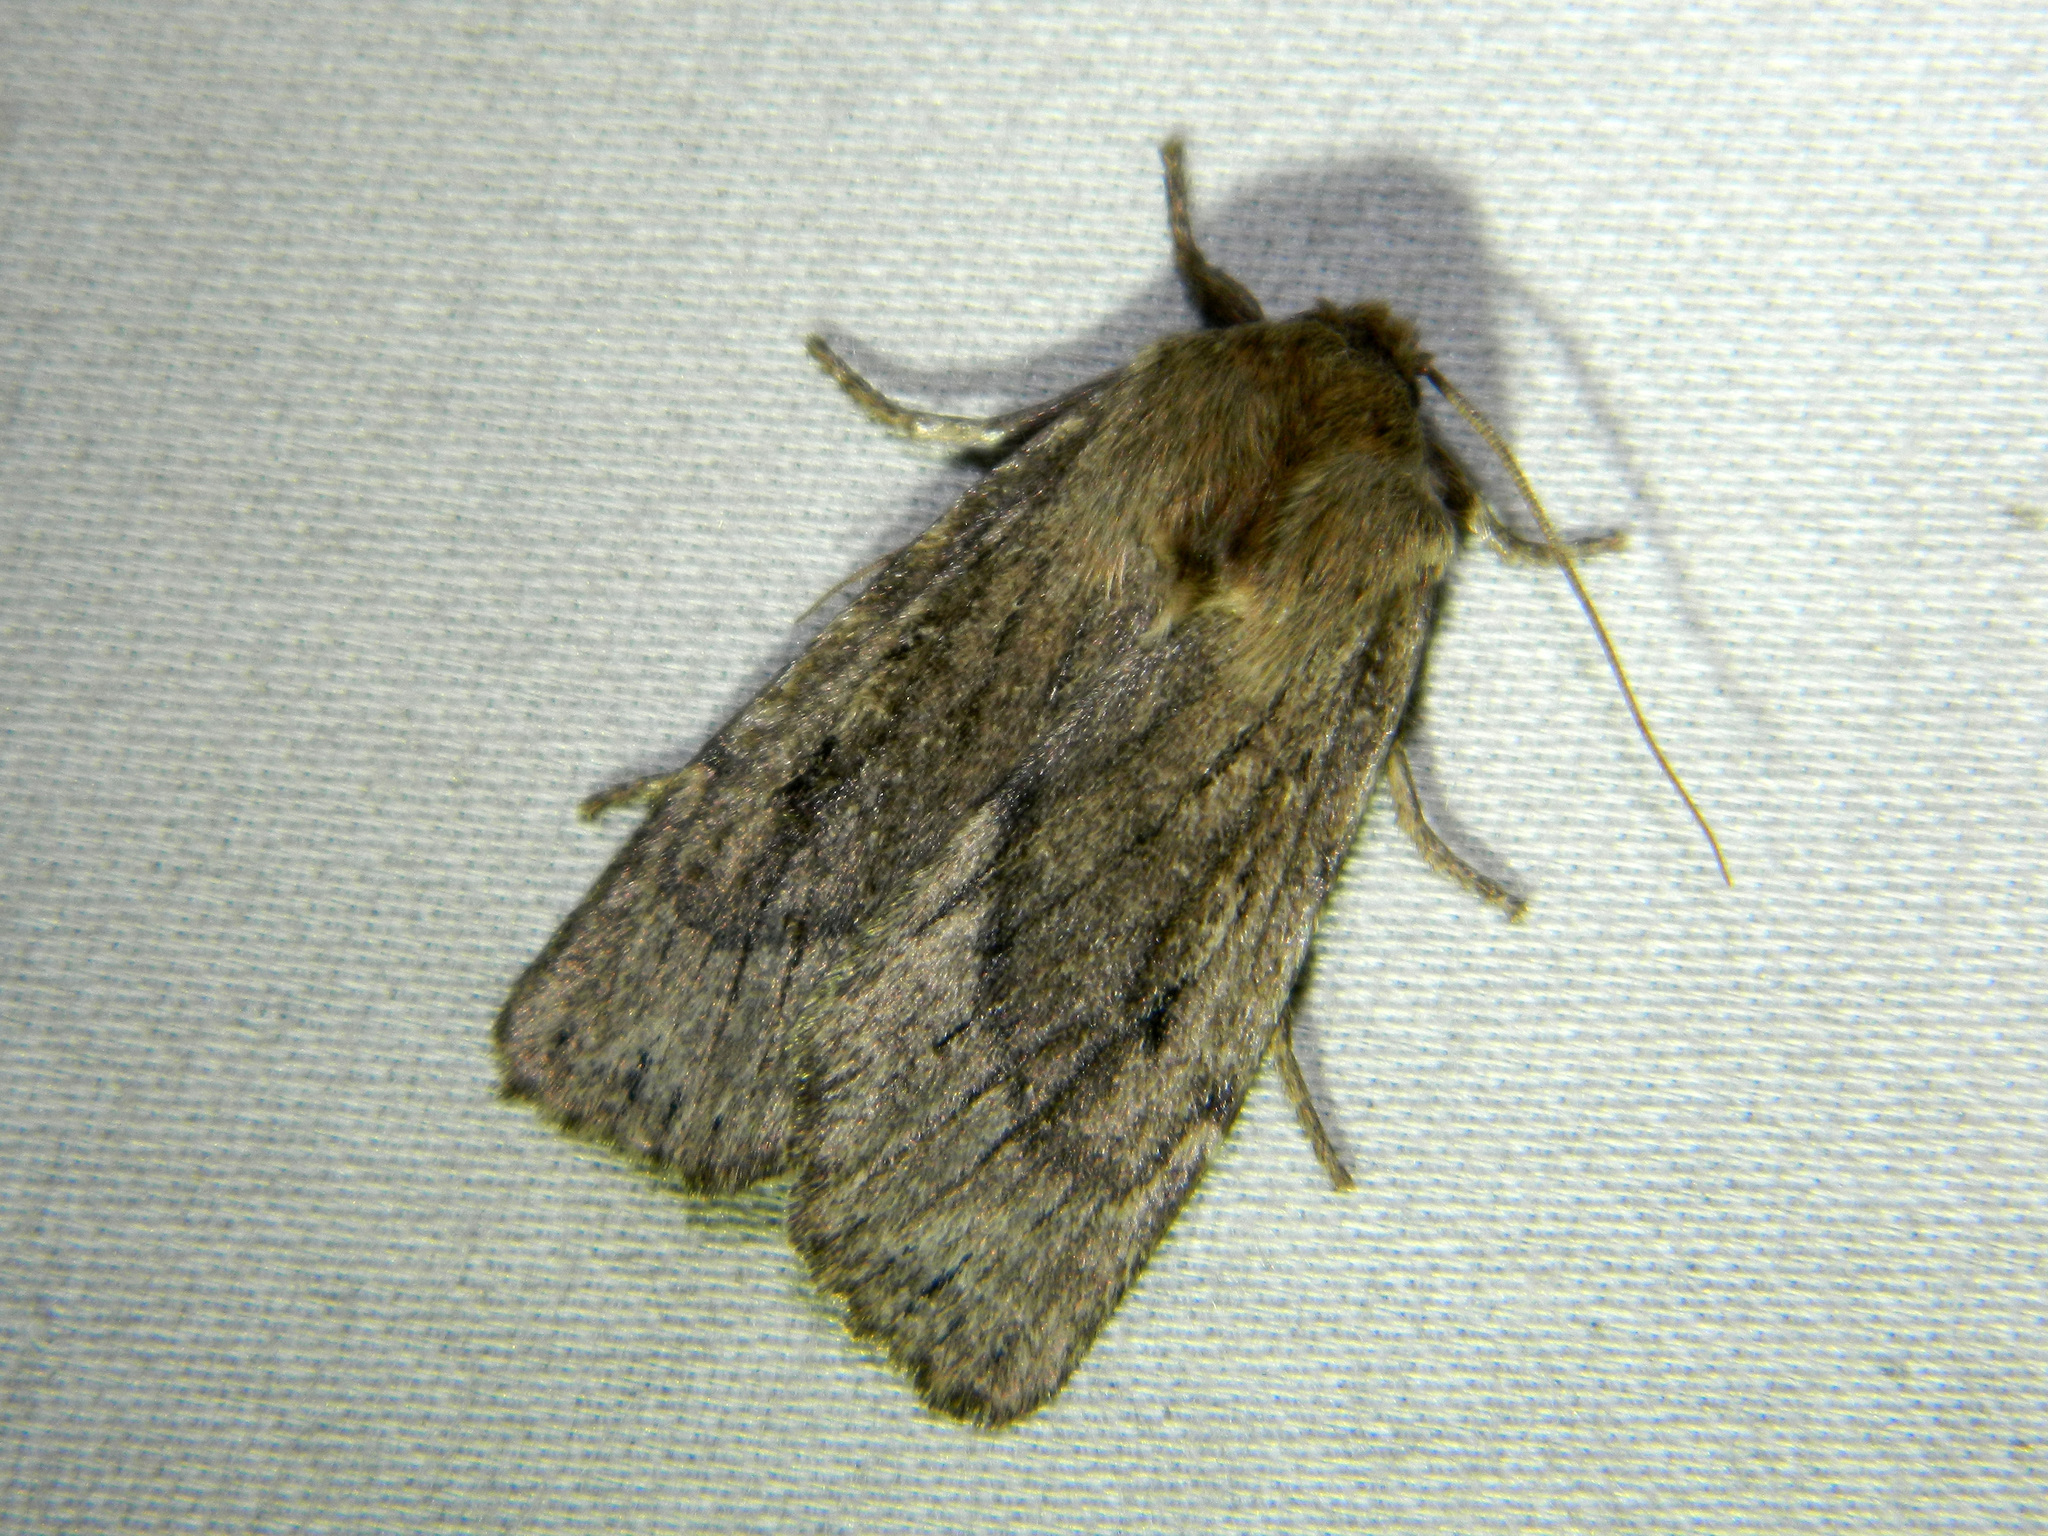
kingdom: Animalia
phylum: Arthropoda
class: Insecta
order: Lepidoptera
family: Noctuidae
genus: Ufeus
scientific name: Ufeus satyricus
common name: Brown satyr moth
